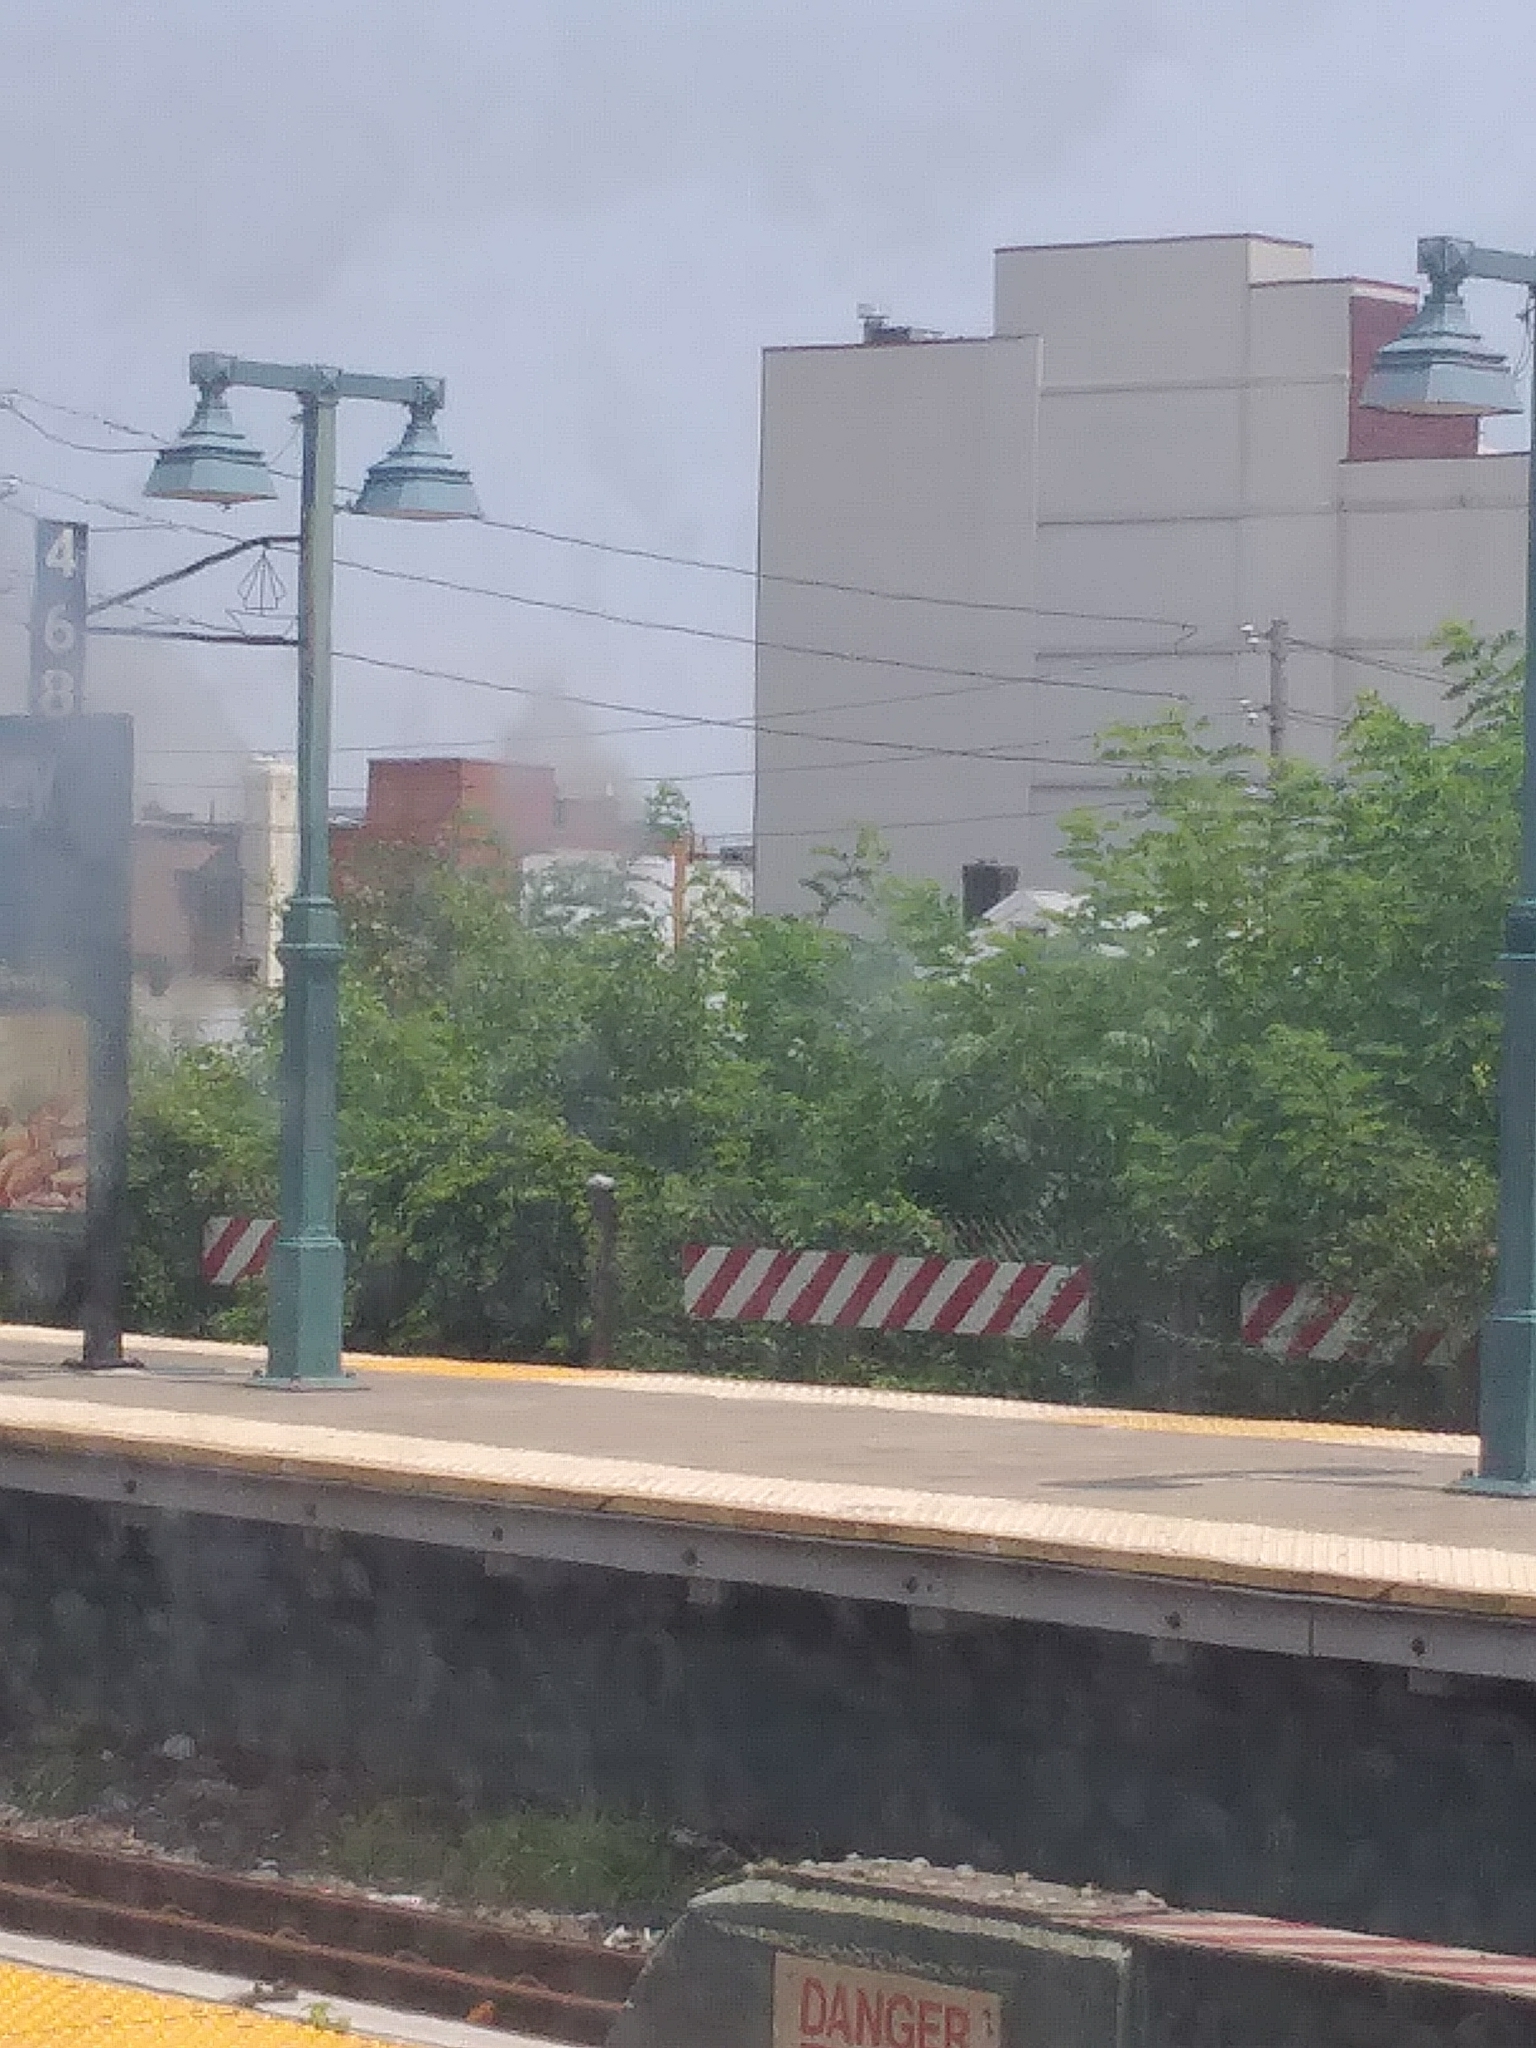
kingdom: Plantae
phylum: Tracheophyta
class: Magnoliopsida
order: Sapindales
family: Simaroubaceae
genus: Ailanthus
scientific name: Ailanthus altissima
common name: Tree-of-heaven
